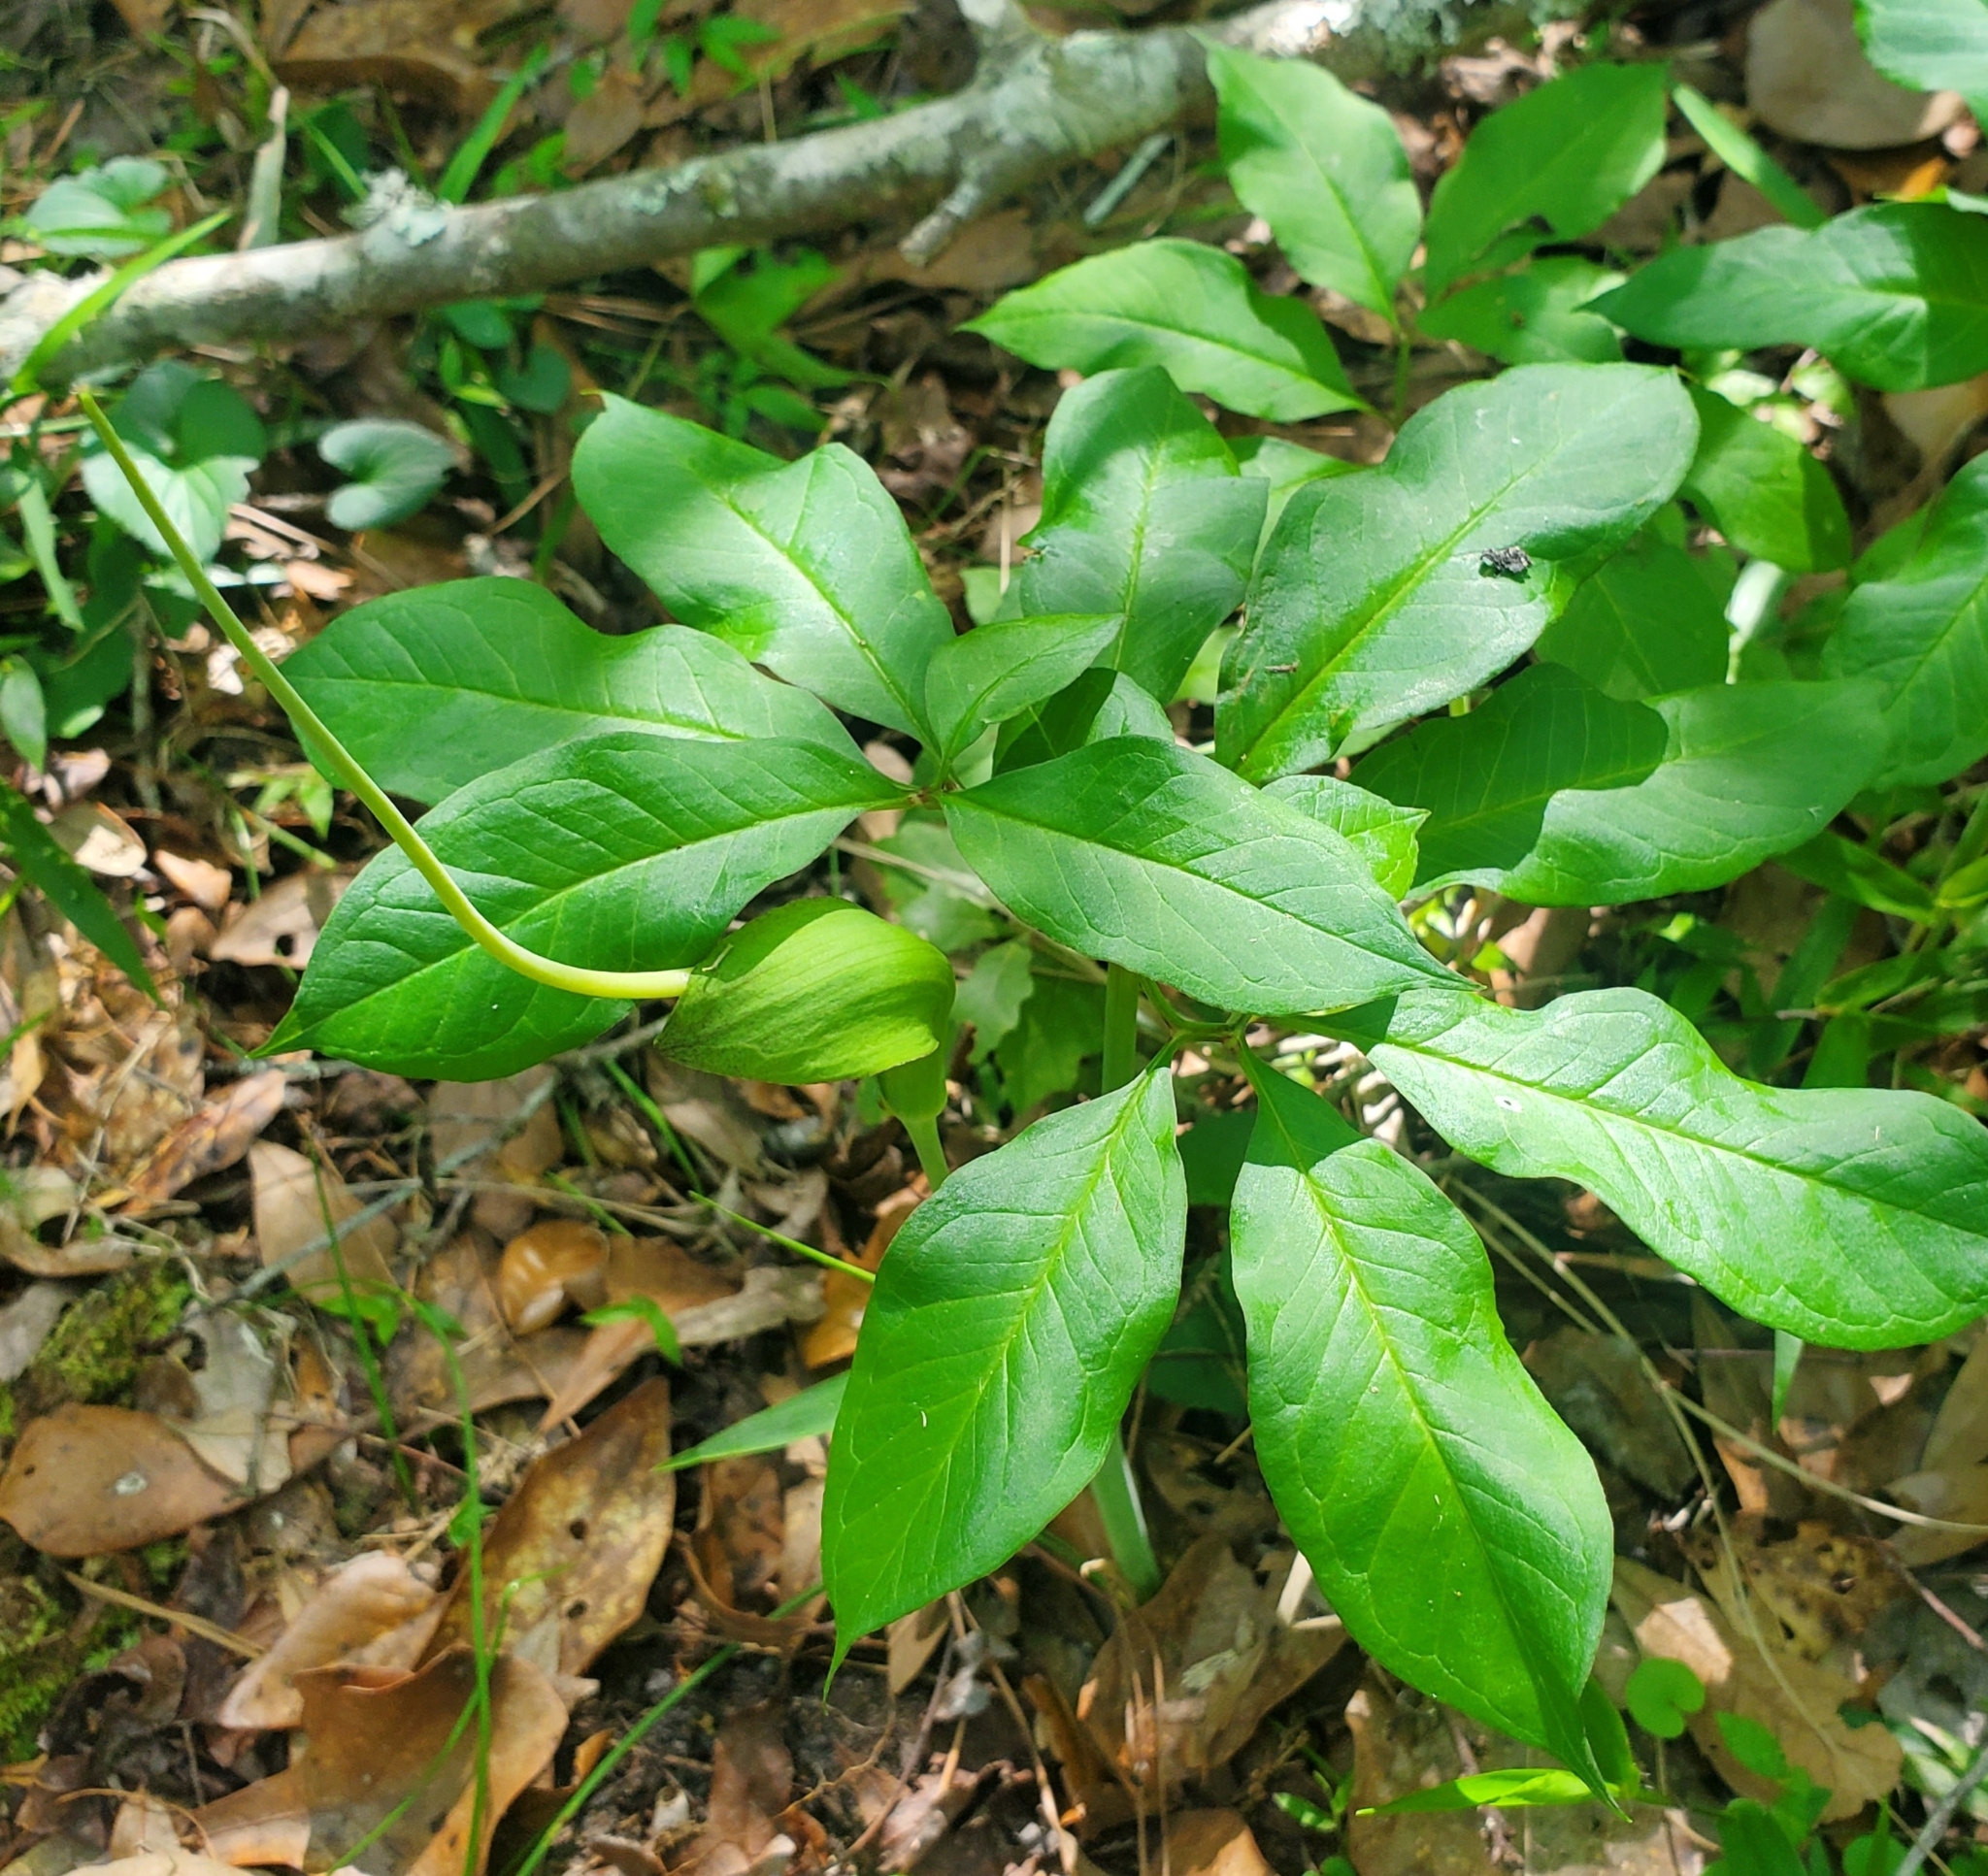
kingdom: Plantae
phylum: Tracheophyta
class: Liliopsida
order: Alismatales
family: Araceae
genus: Arisaema
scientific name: Arisaema dracontium
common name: Dragon-arum
